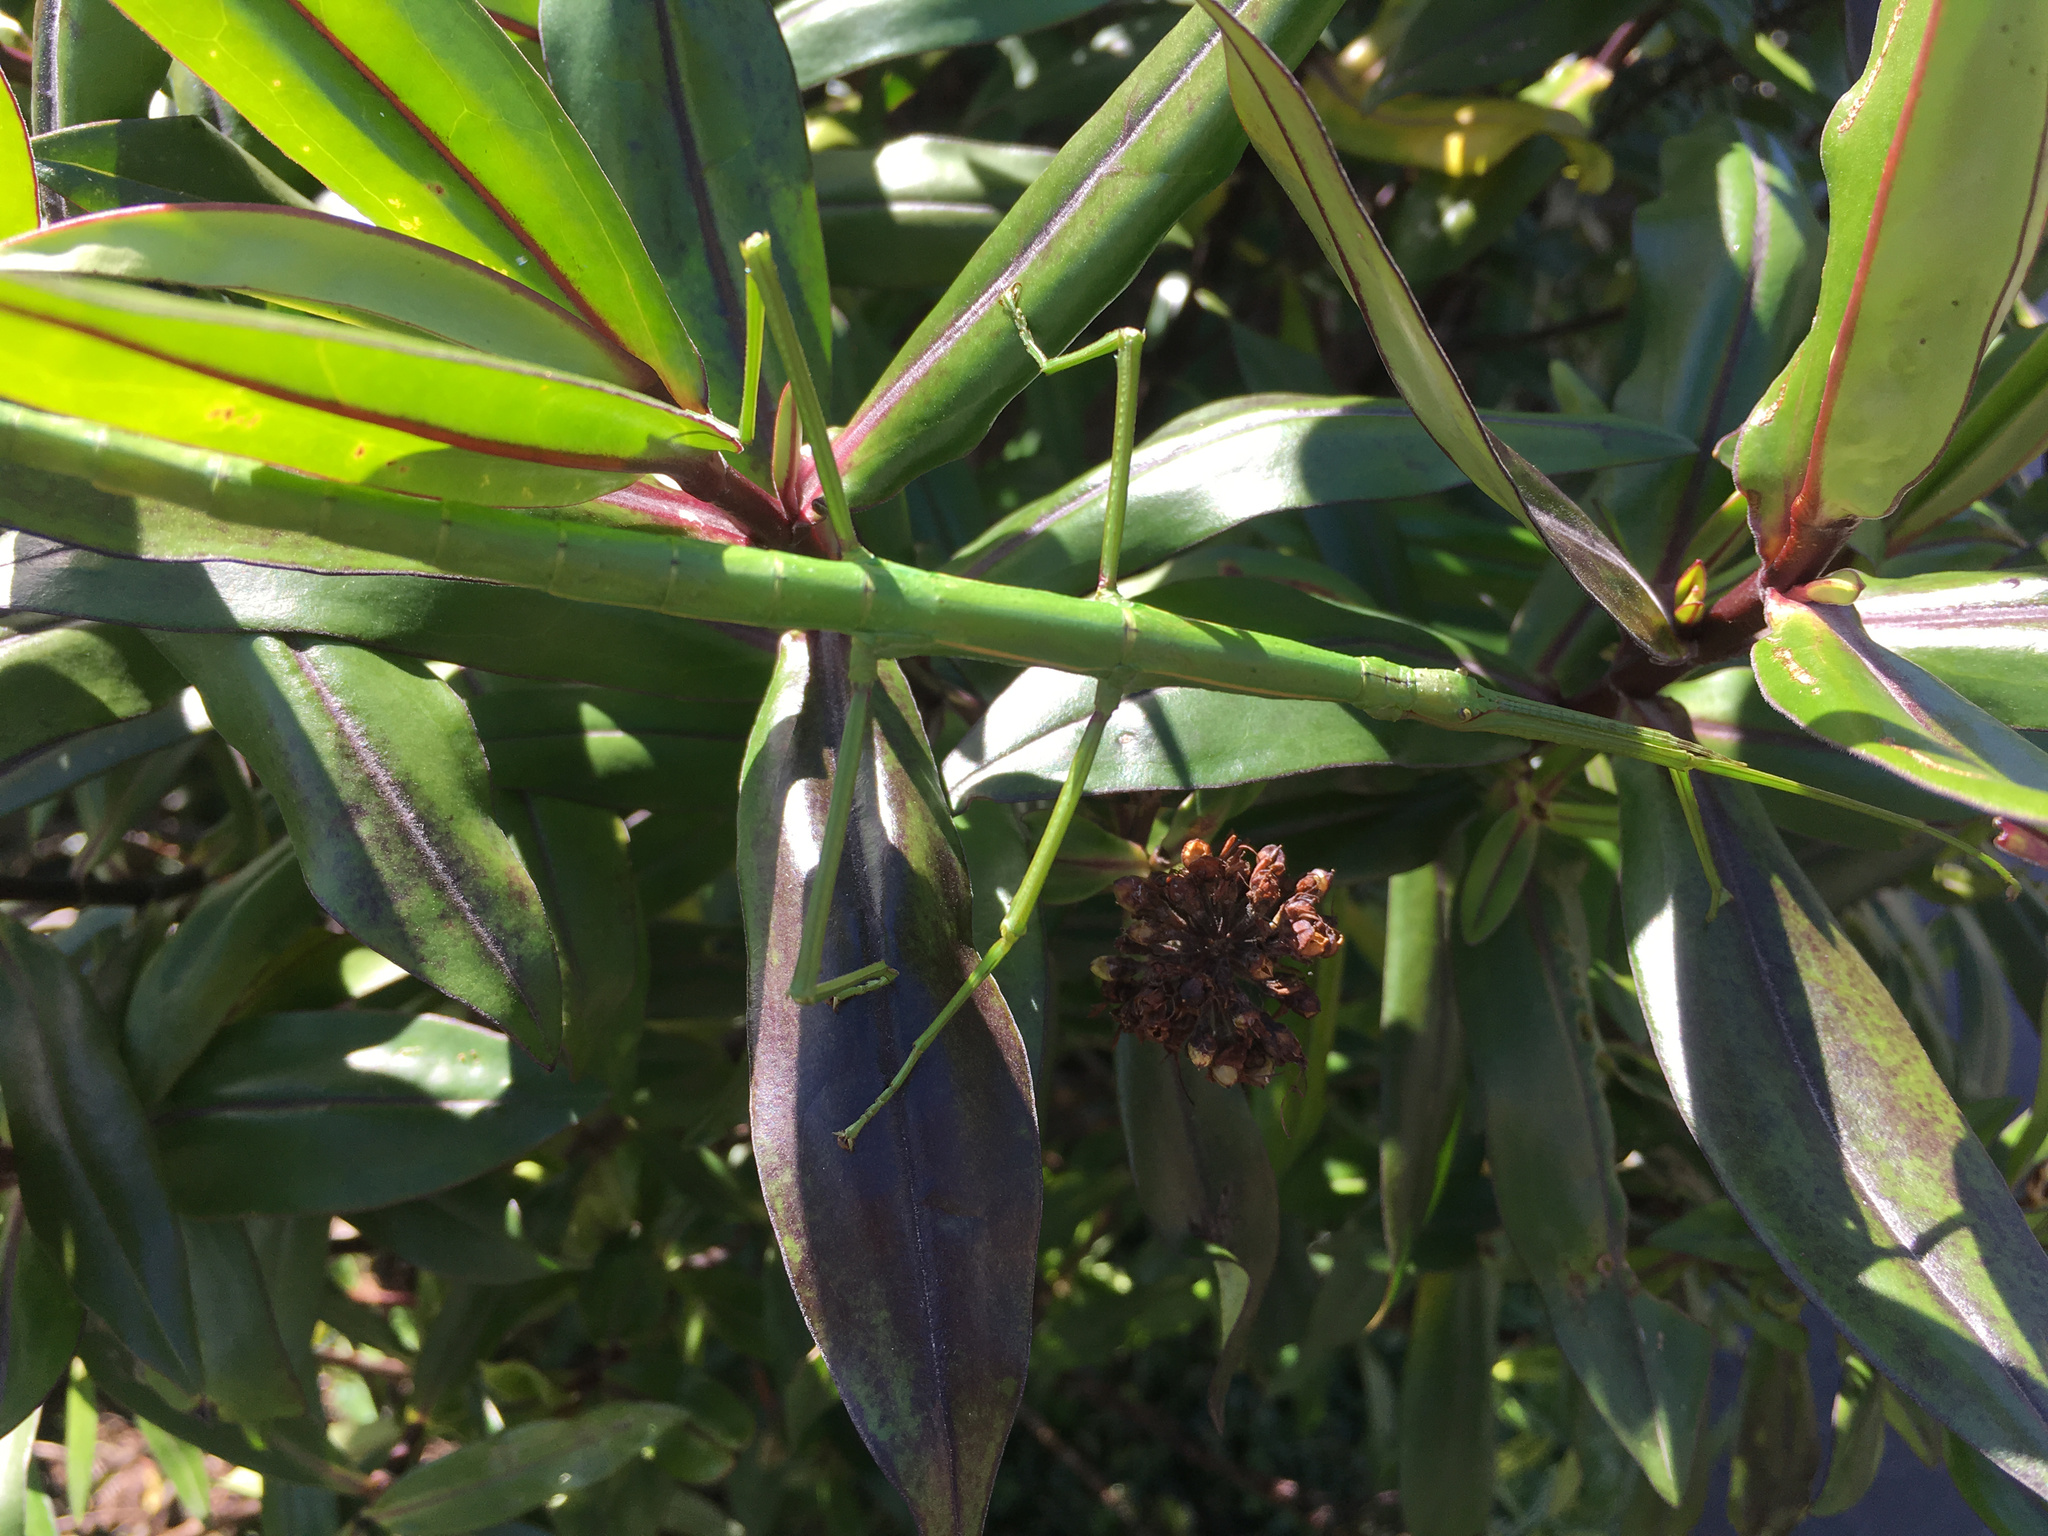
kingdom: Animalia
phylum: Arthropoda
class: Insecta
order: Phasmida
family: Phasmatidae
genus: Clitarchus
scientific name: Clitarchus hookeri
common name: Smooth stick insect
